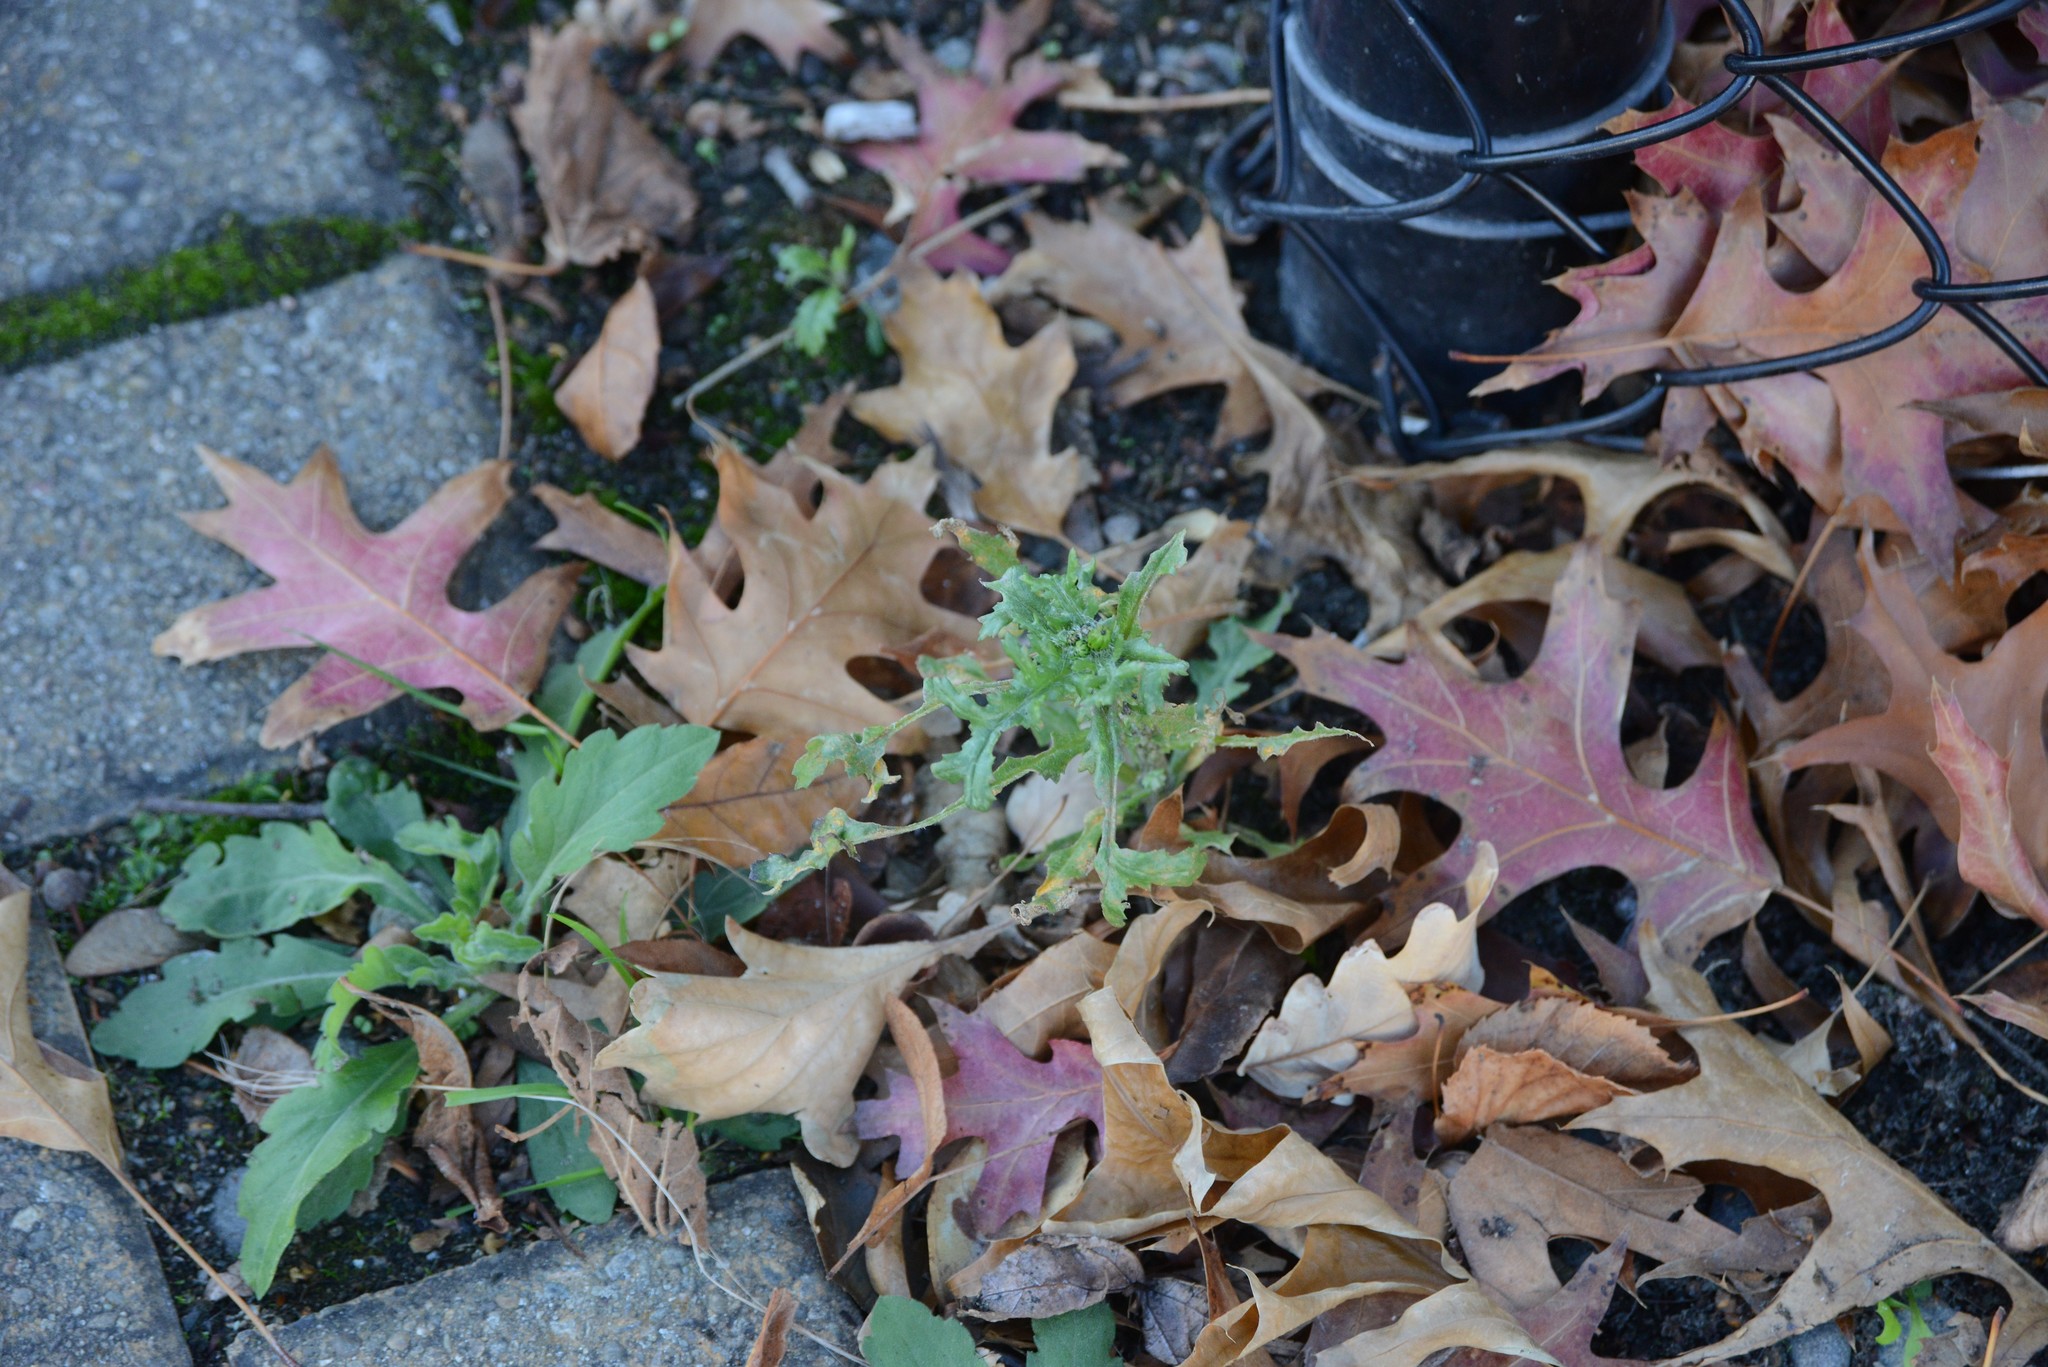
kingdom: Plantae
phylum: Tracheophyta
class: Magnoliopsida
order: Asterales
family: Asteraceae
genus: Senecio
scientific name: Senecio vulgaris
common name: Old-man-in-the-spring
